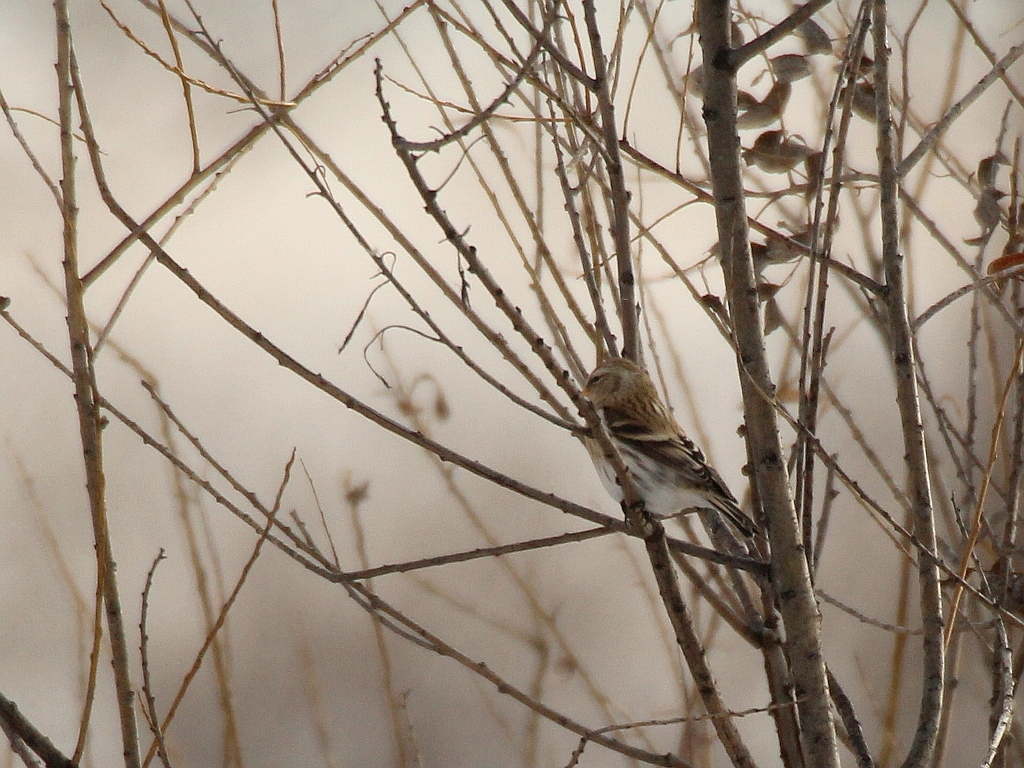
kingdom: Animalia
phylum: Chordata
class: Aves
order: Passeriformes
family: Fringillidae
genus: Acanthis
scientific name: Acanthis flammea
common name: Common redpoll
